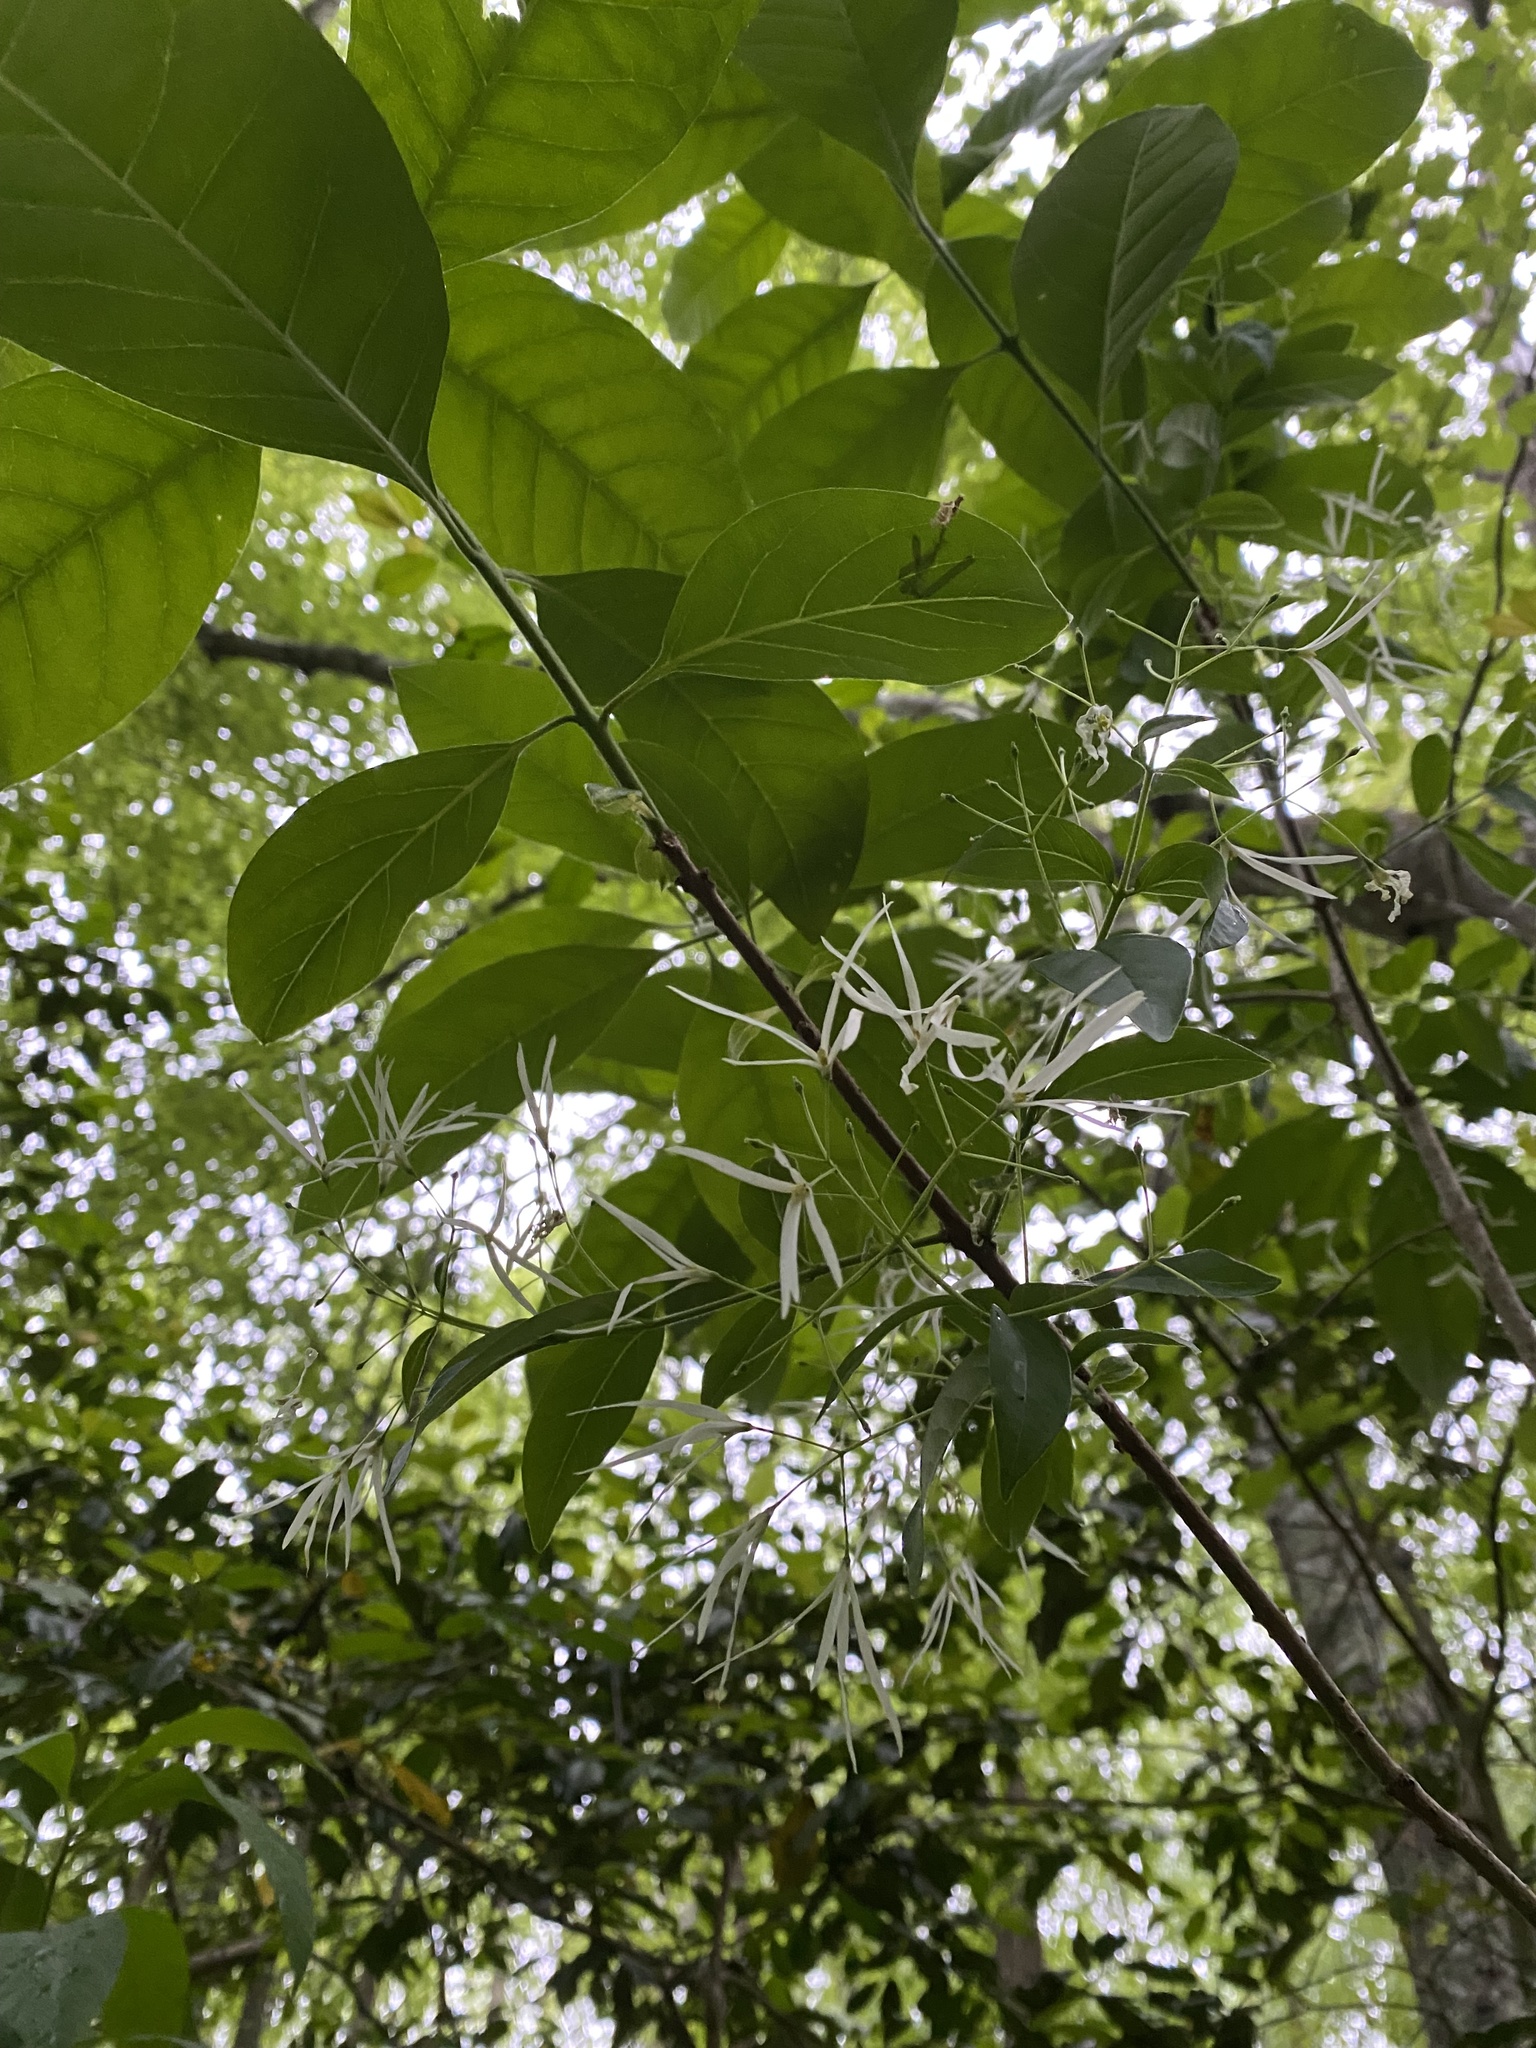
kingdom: Plantae
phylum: Tracheophyta
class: Magnoliopsida
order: Lamiales
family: Oleaceae
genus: Chionanthus
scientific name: Chionanthus virginicus
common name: American fringetree
